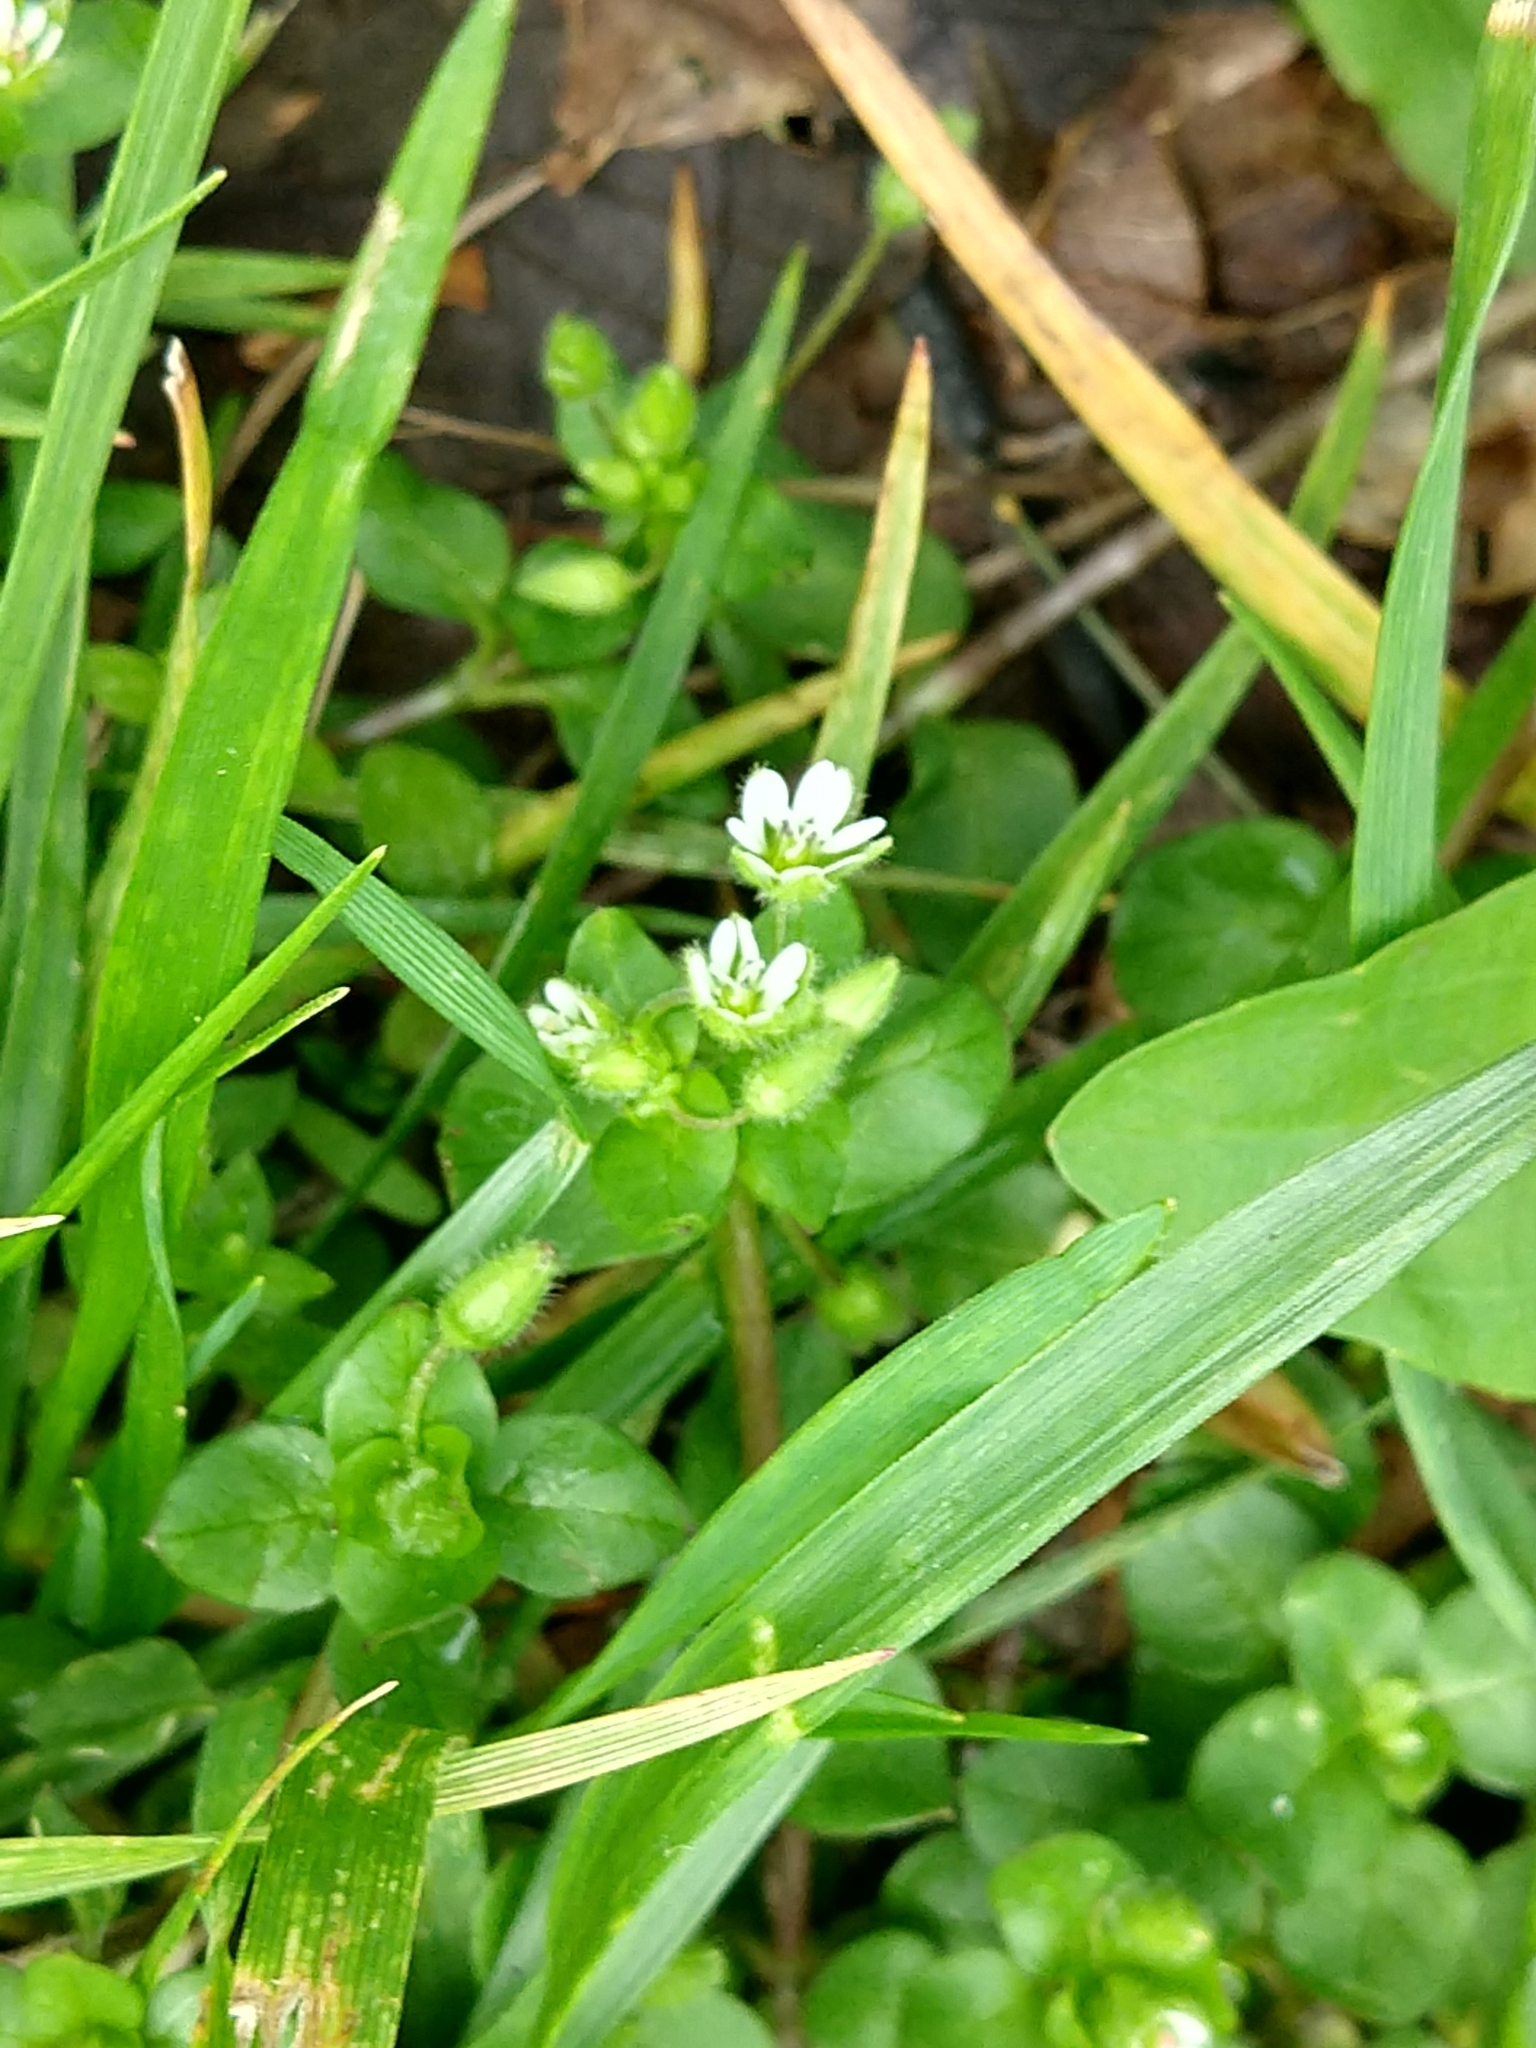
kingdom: Plantae
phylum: Tracheophyta
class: Magnoliopsida
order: Caryophyllales
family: Caryophyllaceae
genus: Stellaria
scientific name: Stellaria media
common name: Common chickweed
